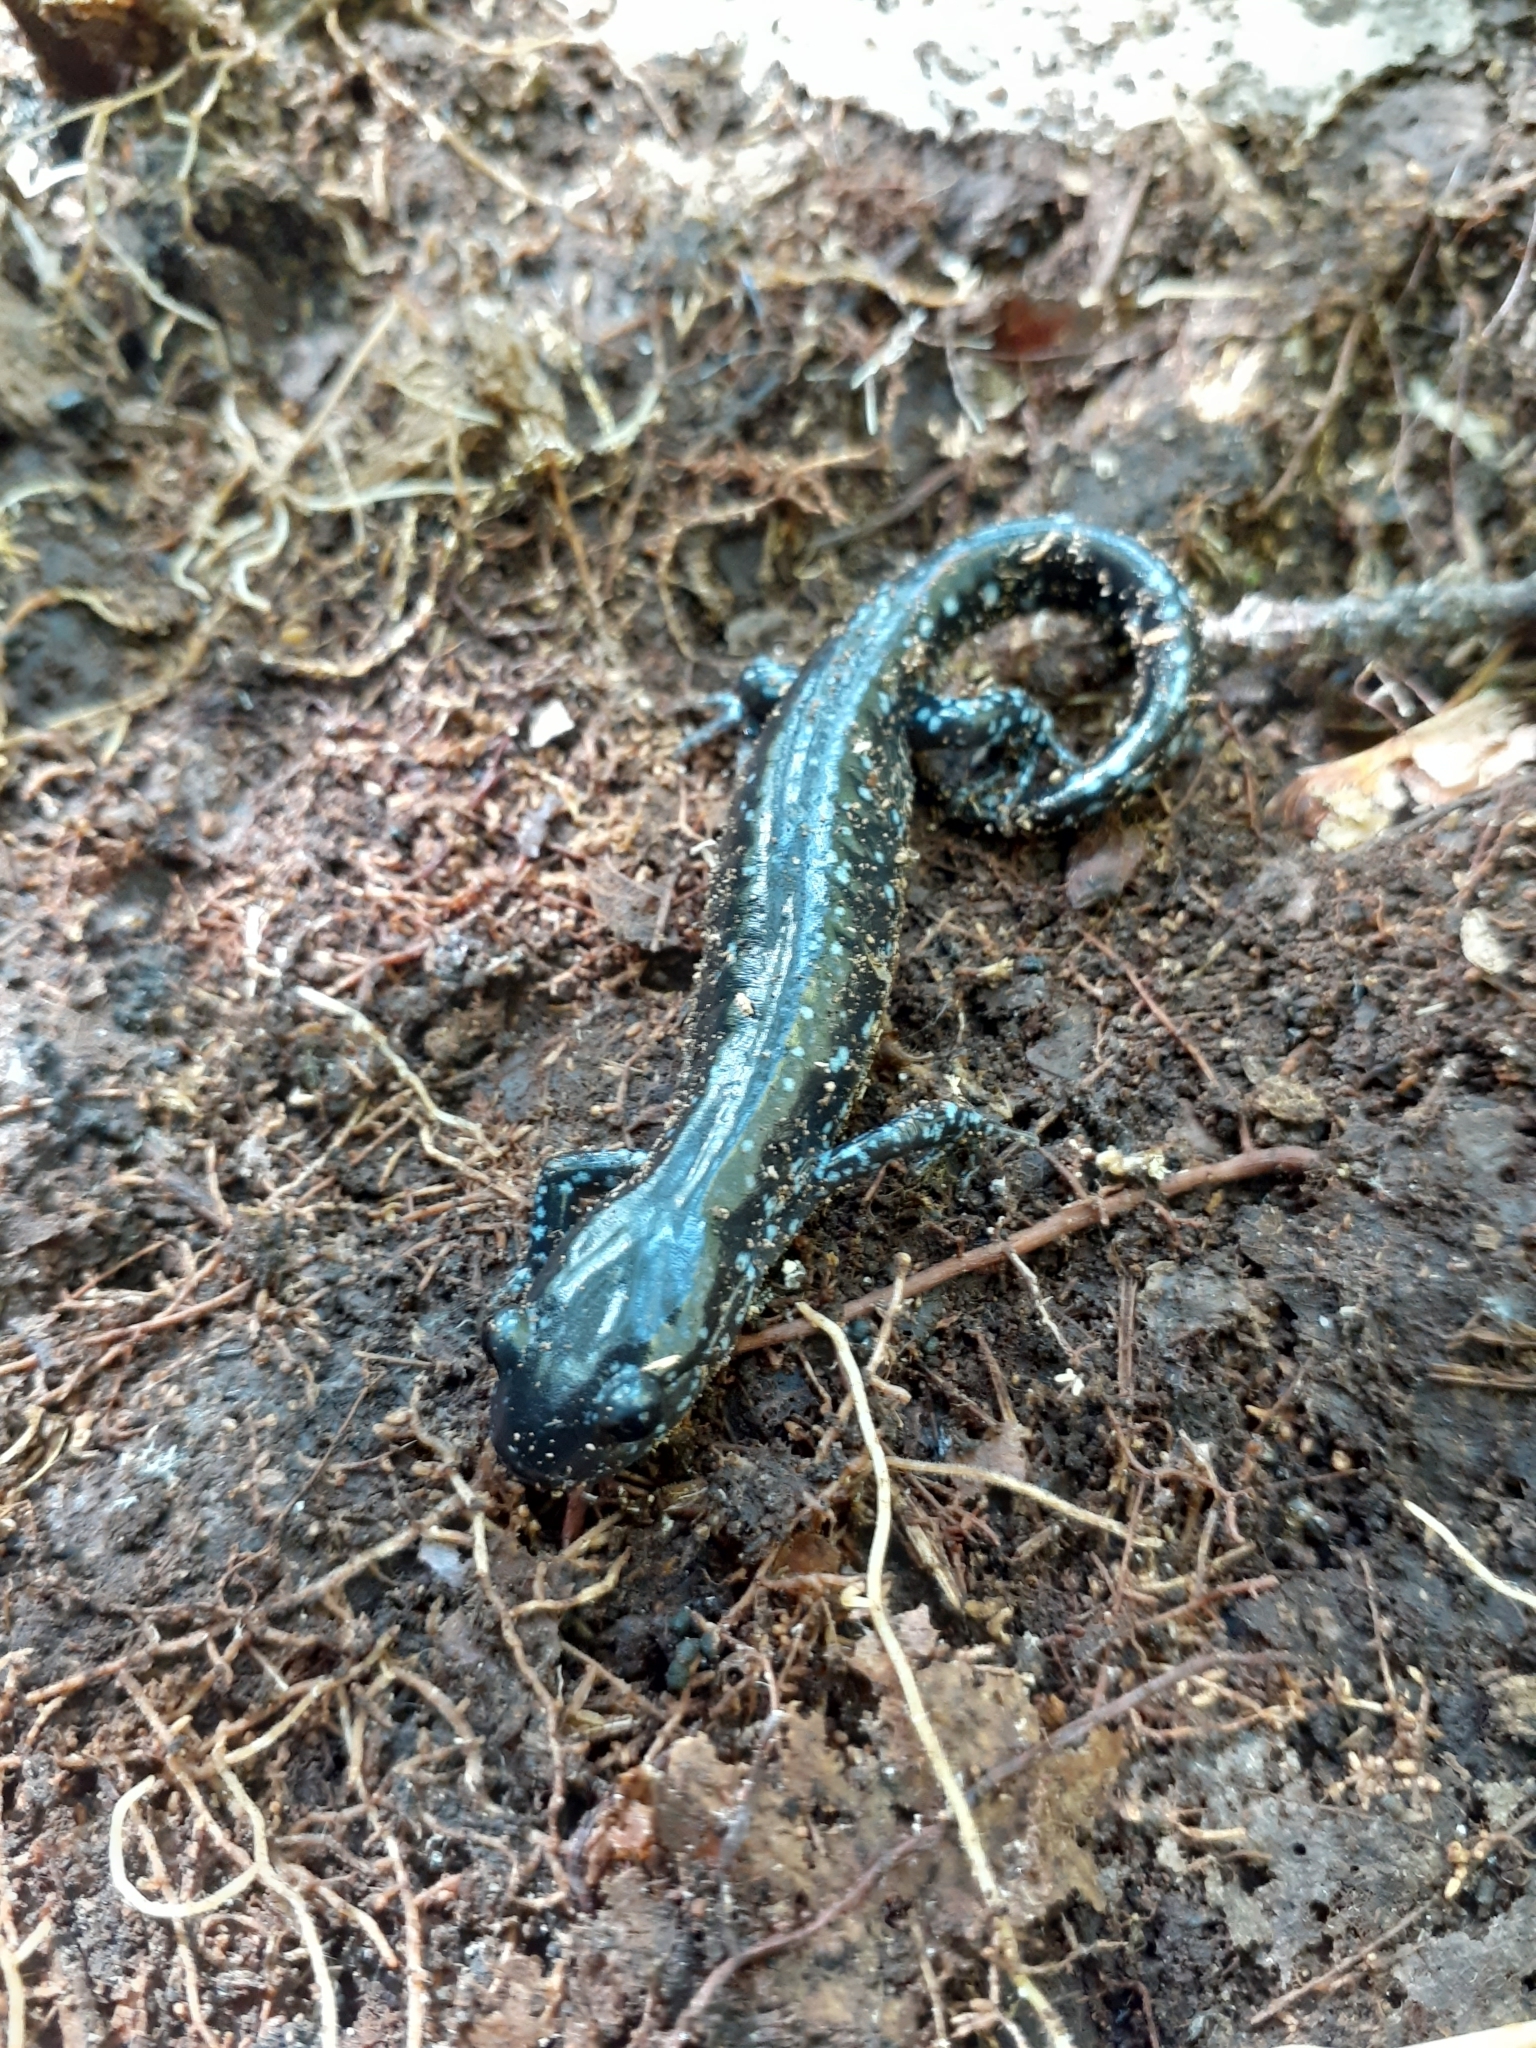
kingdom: Animalia
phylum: Chordata
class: Amphibia
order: Caudata
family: Ambystomatidae
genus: Ambystoma
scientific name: Ambystoma laterale
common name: Blue-spotted salamander
